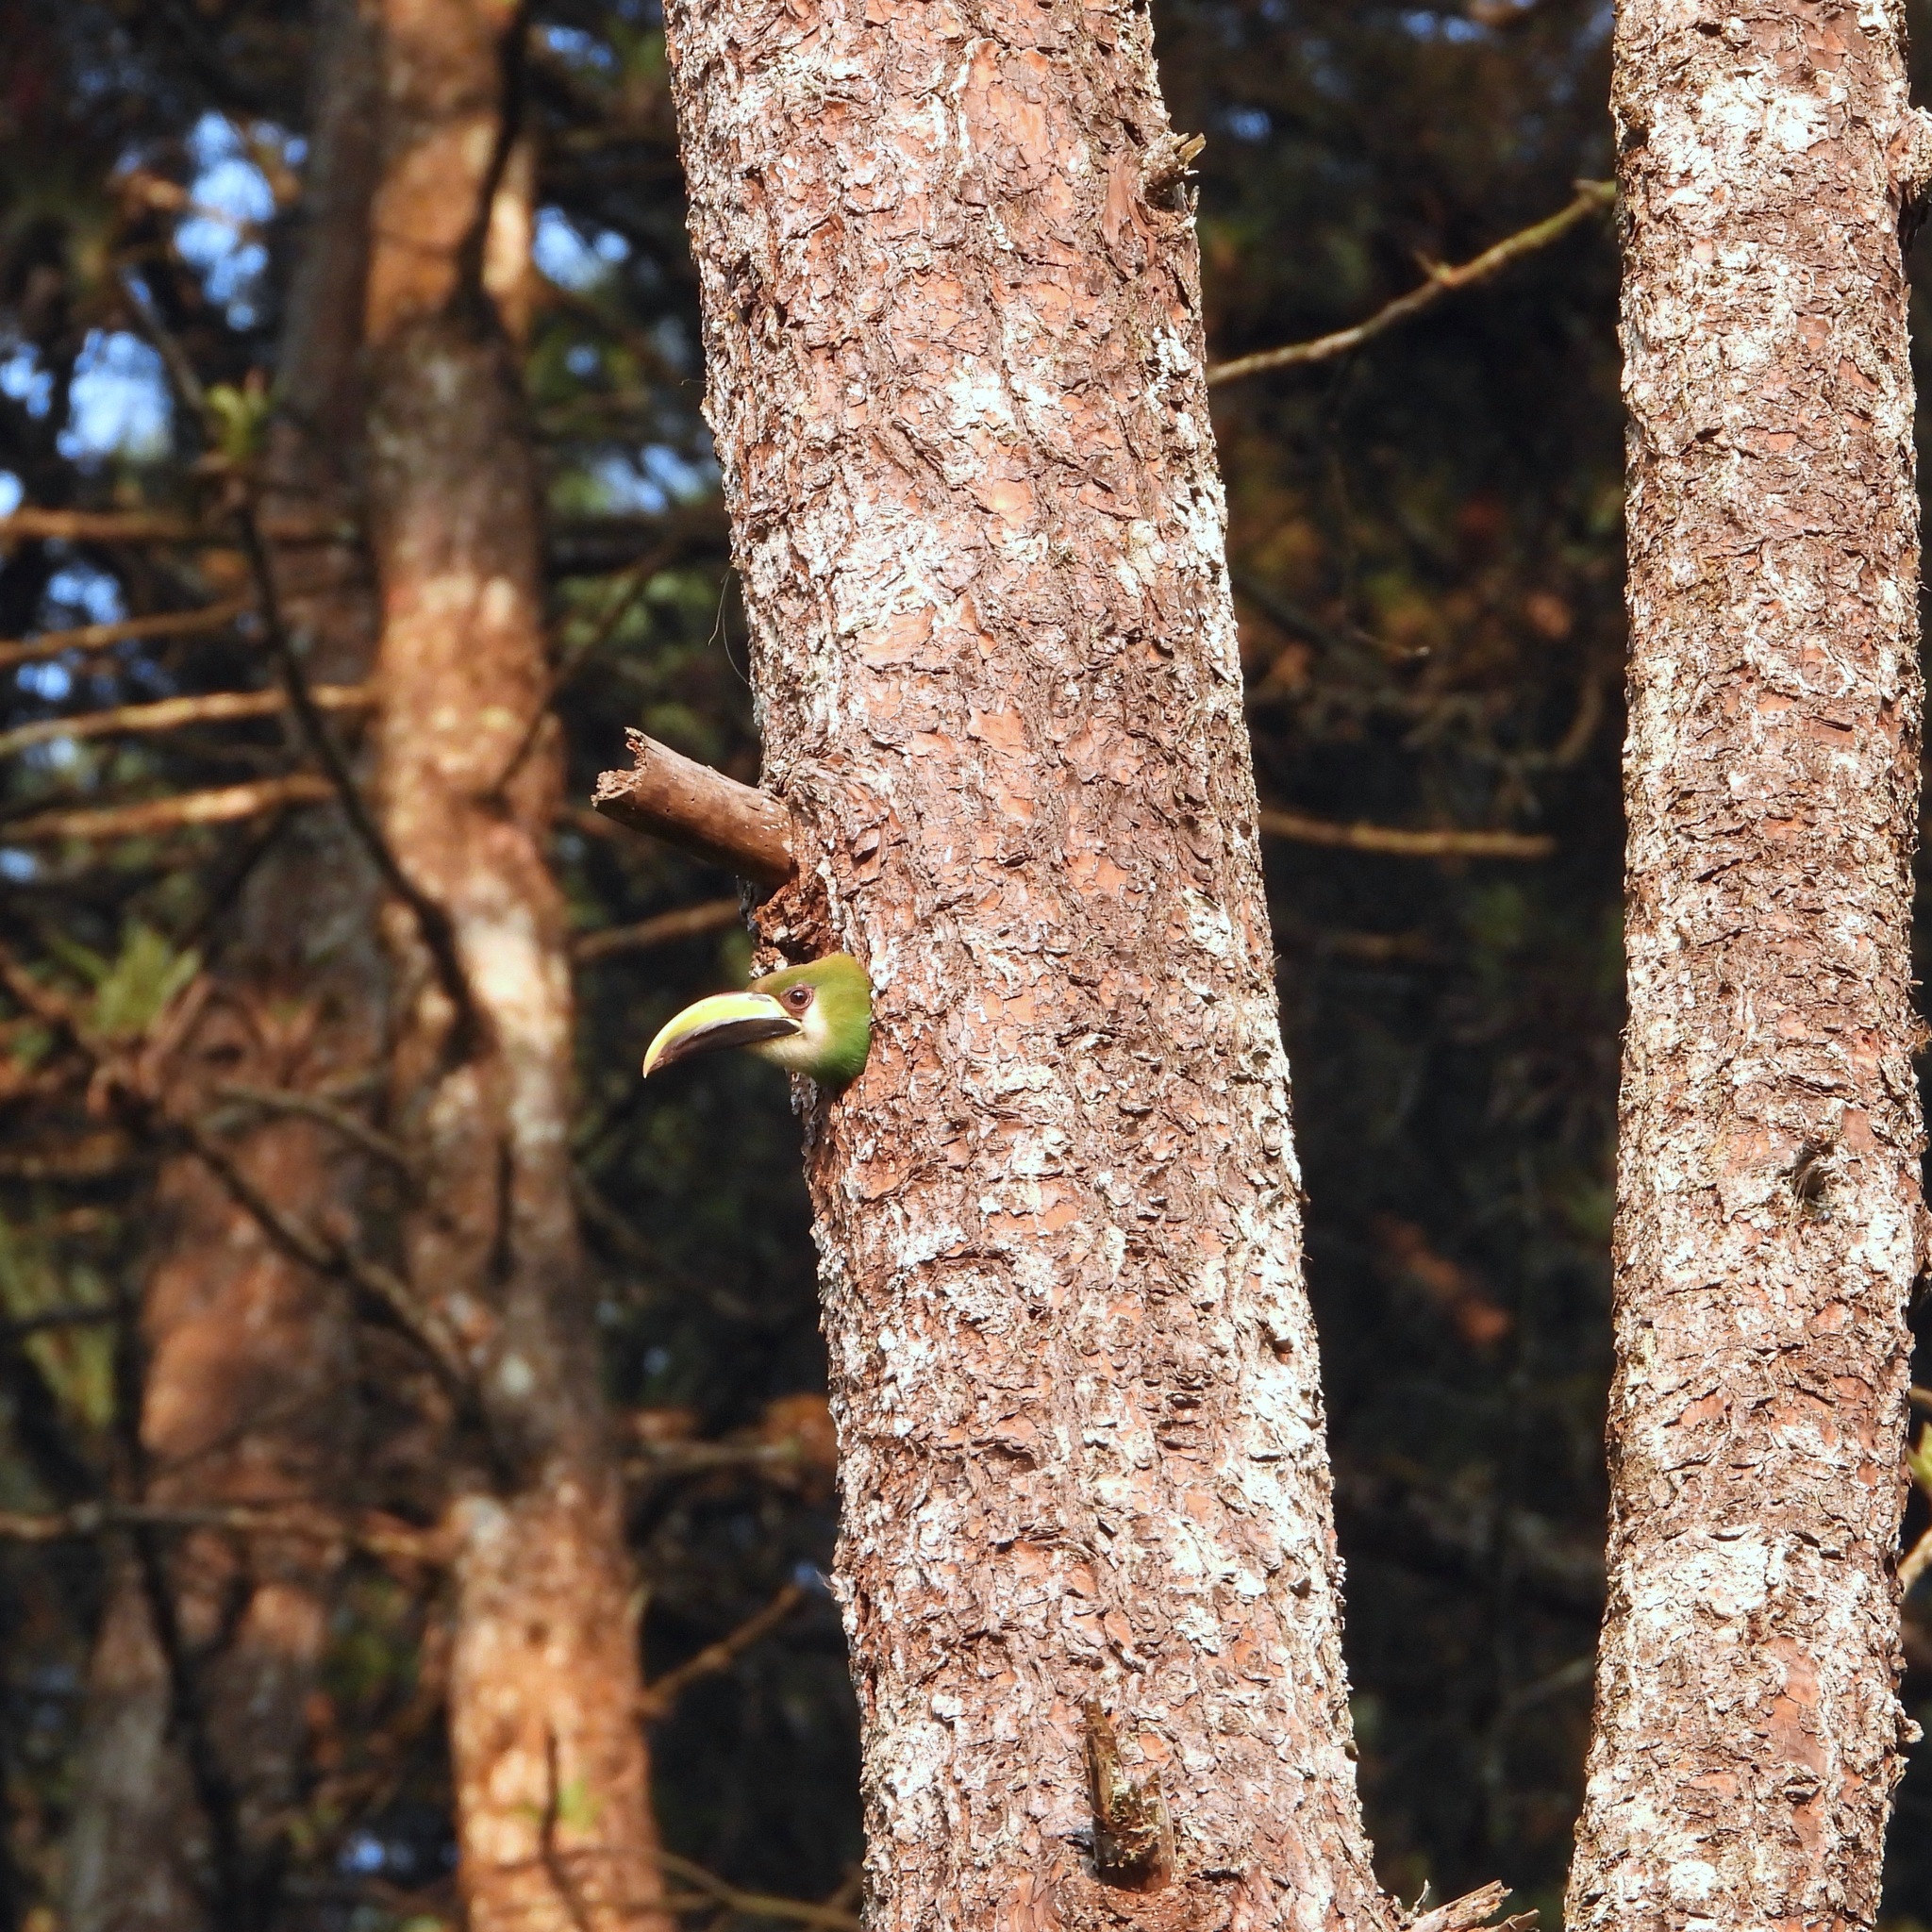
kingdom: Animalia
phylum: Chordata
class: Aves
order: Piciformes
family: Ramphastidae
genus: Aulacorhynchus
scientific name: Aulacorhynchus prasinus
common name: Emerald toucanet
